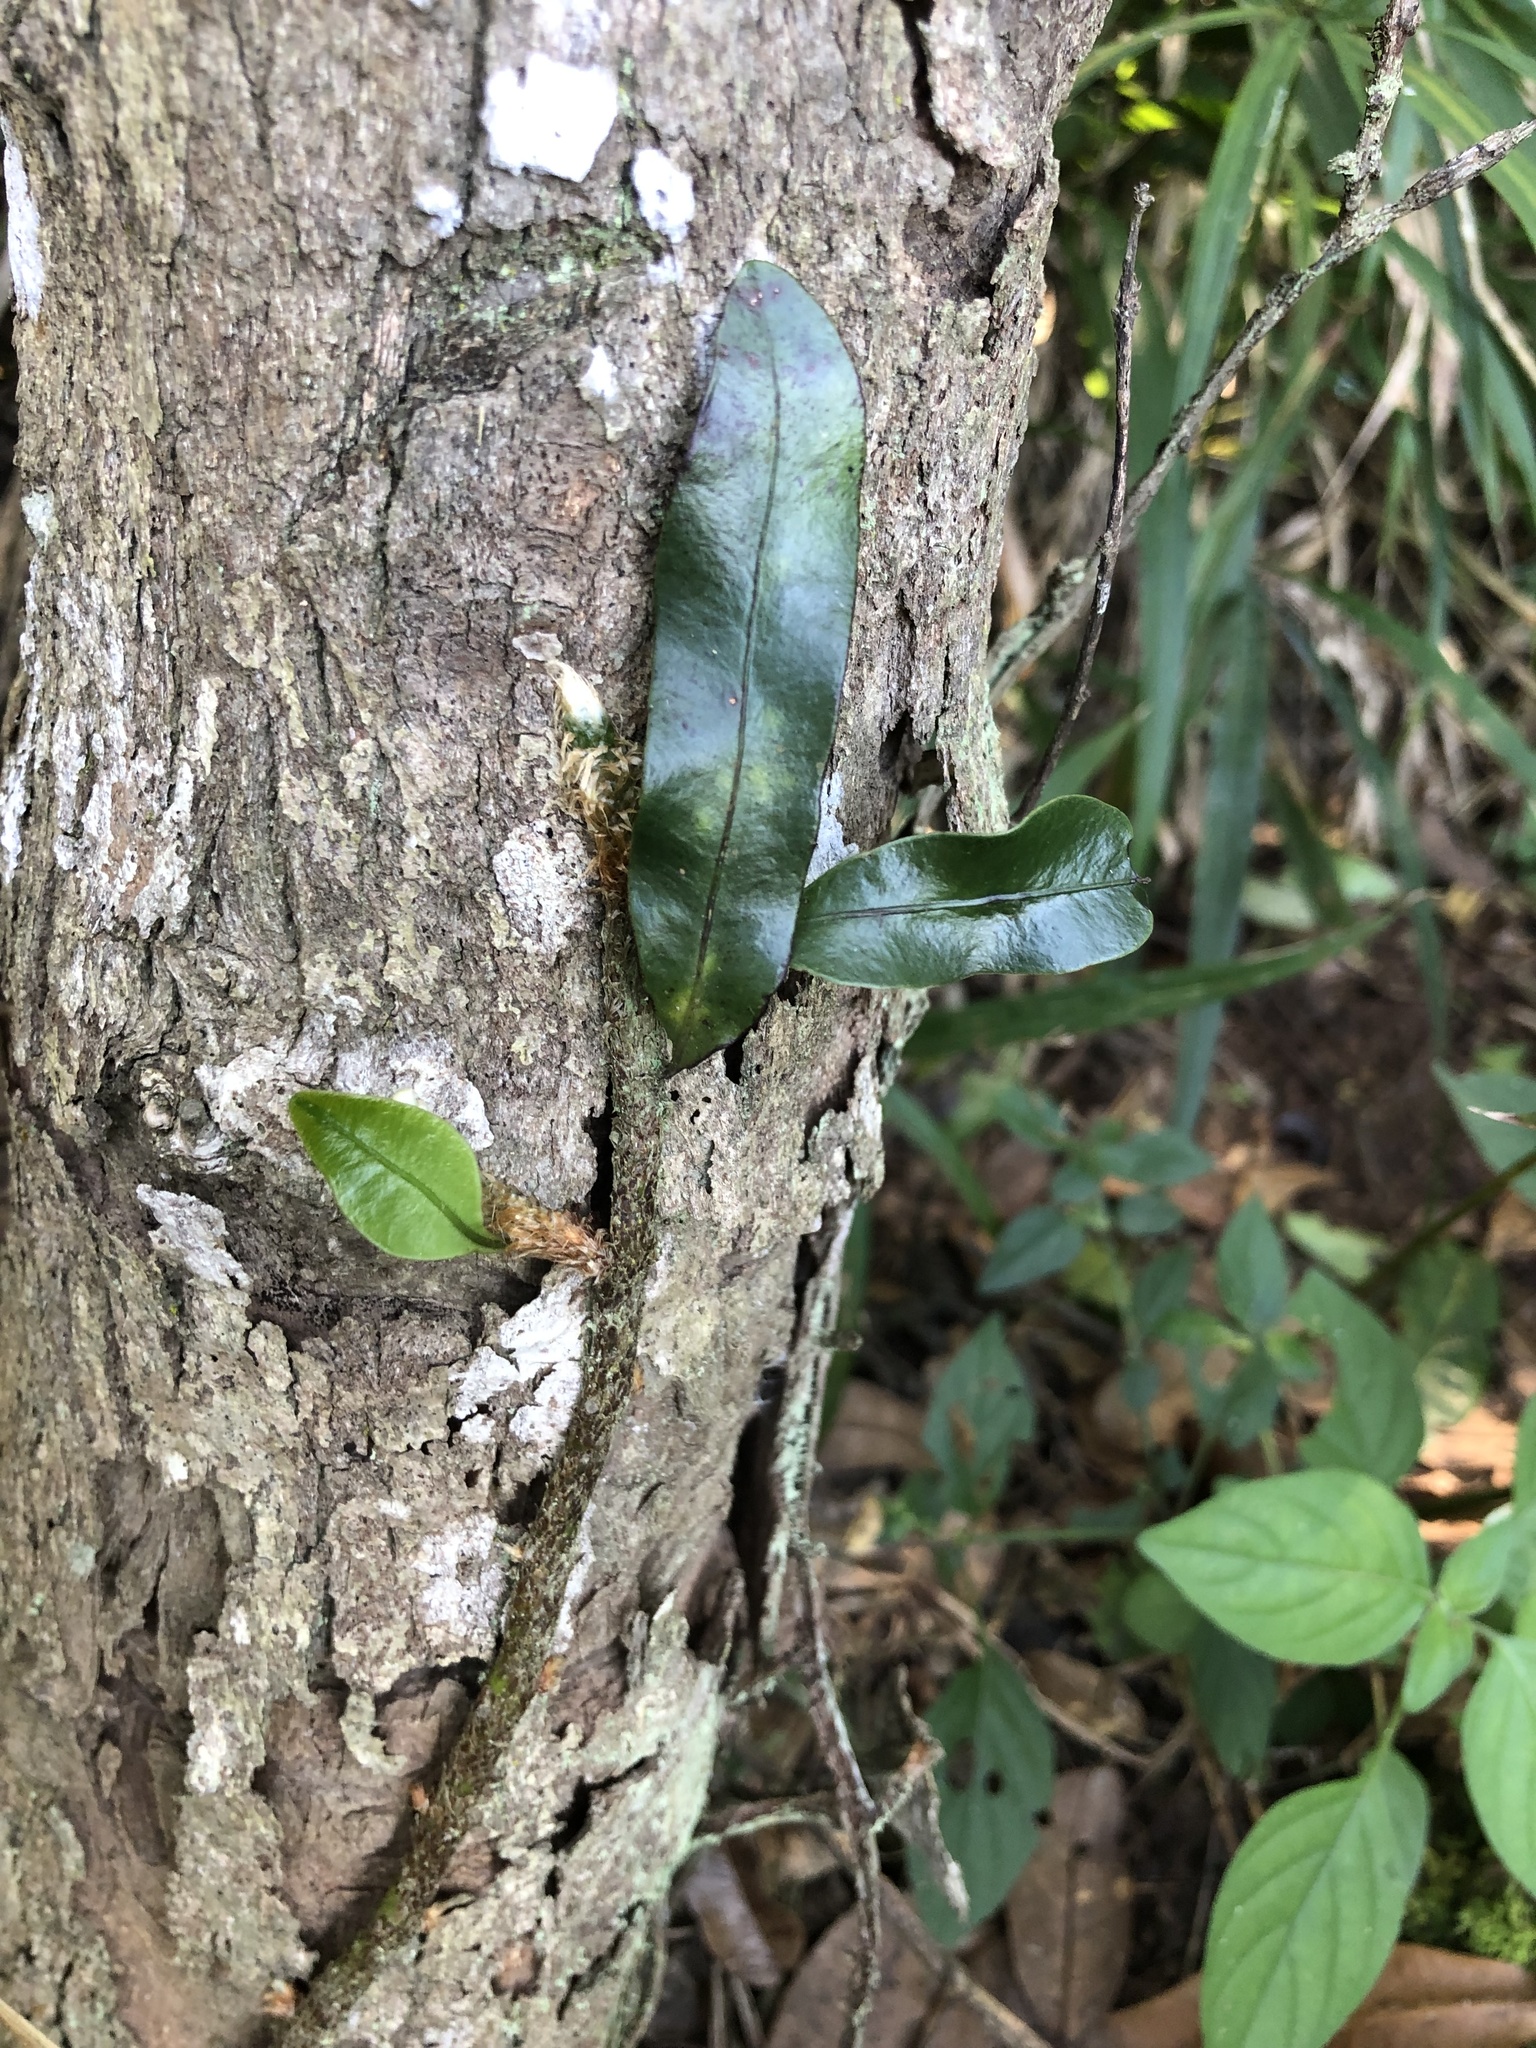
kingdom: Plantae
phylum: Tracheophyta
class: Polypodiopsida
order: Polypodiales
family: Polypodiaceae
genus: Microgramma
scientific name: Microgramma lycopodioides
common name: Bastard catclaw
